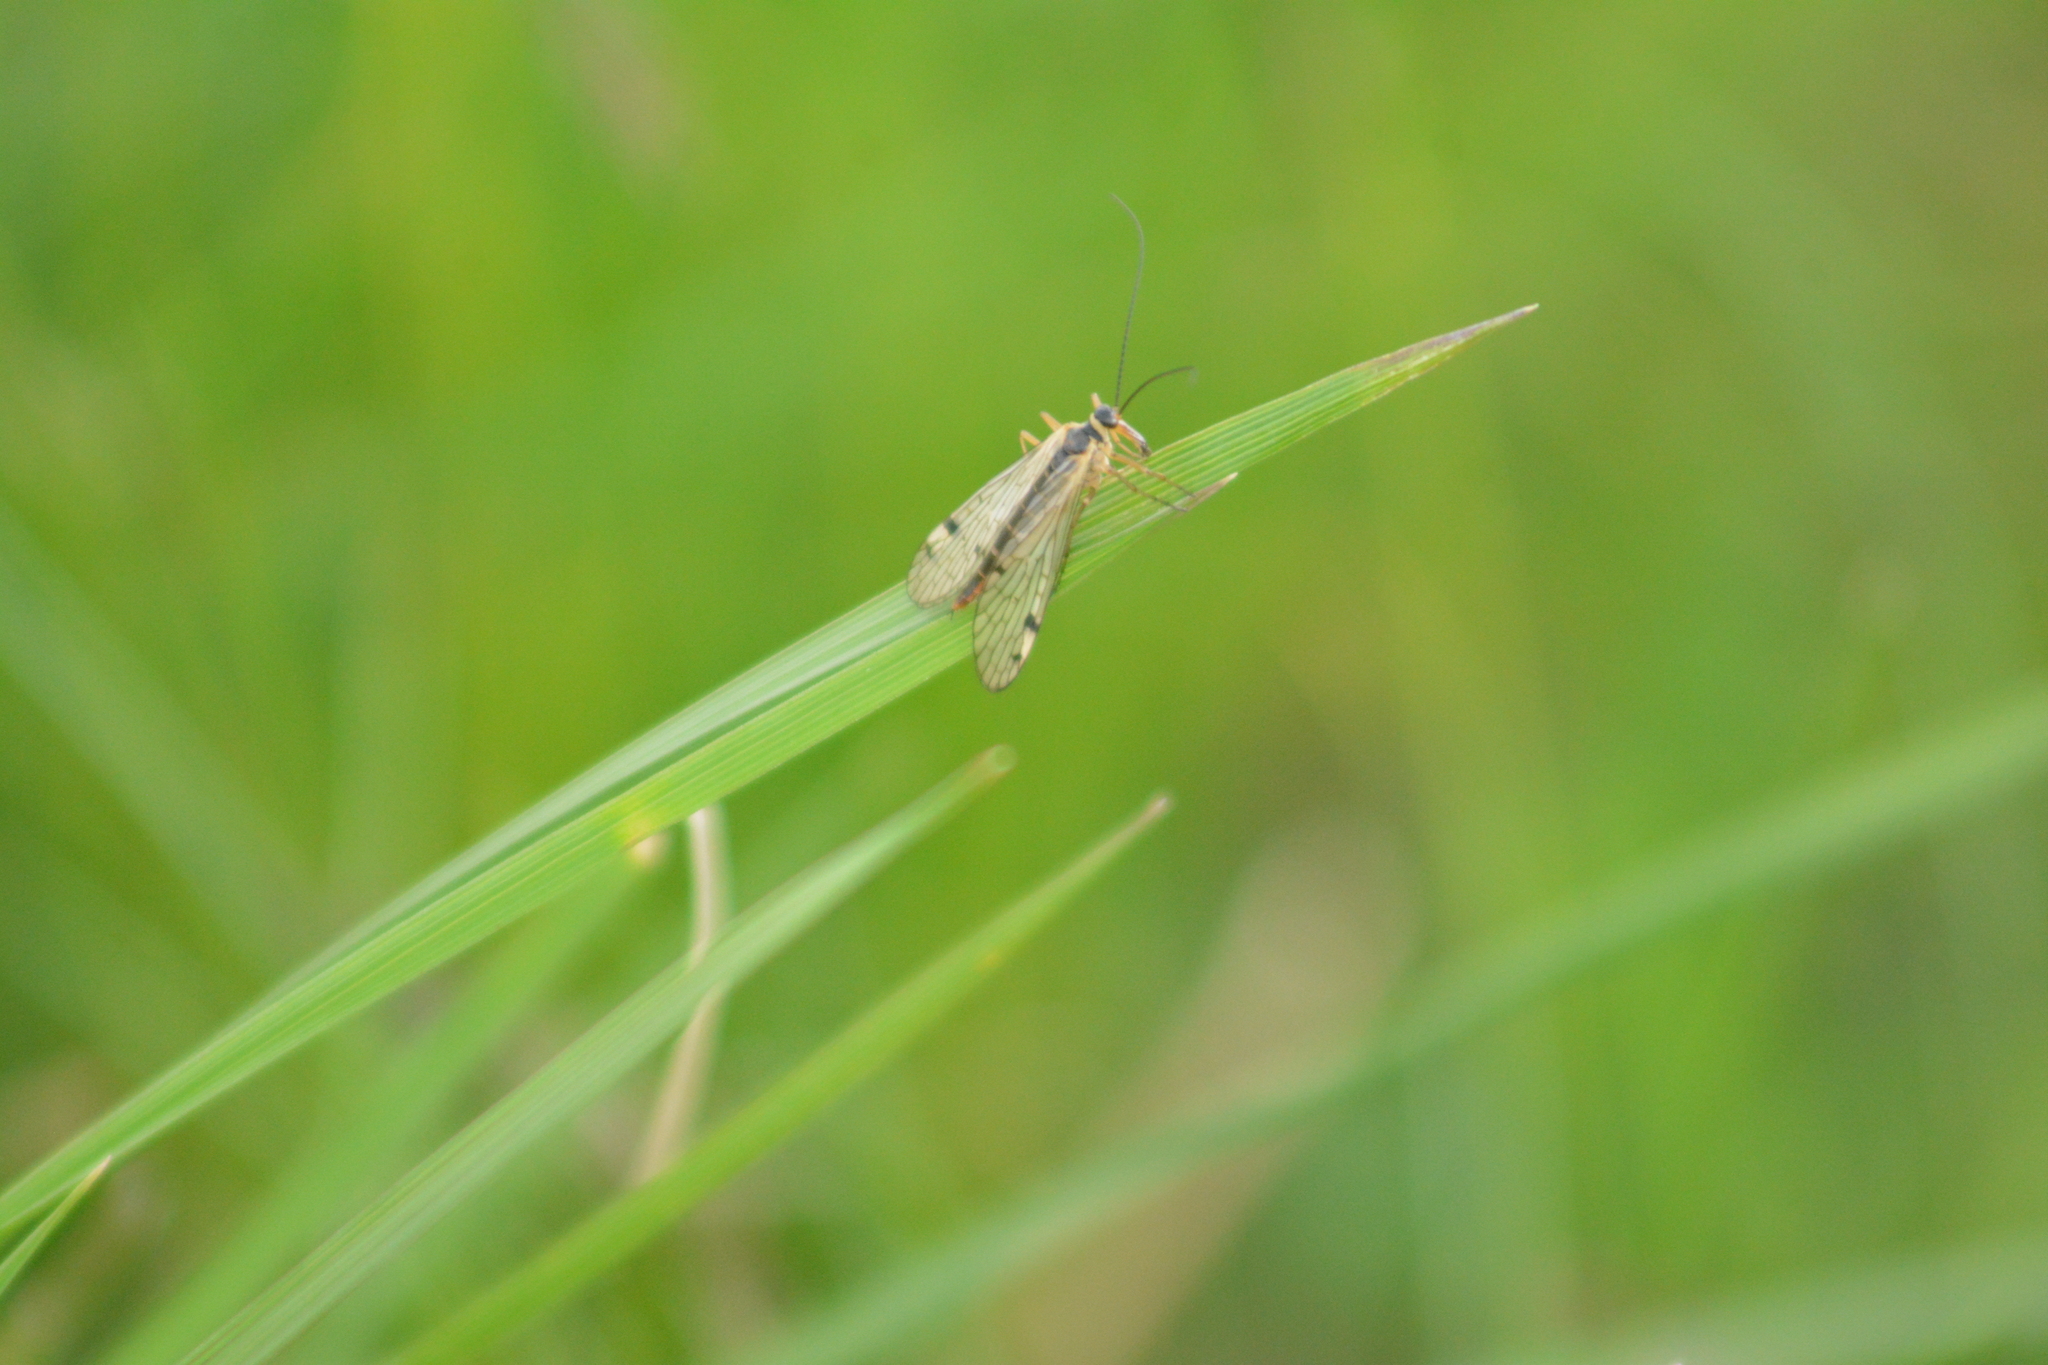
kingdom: Animalia
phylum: Arthropoda
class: Insecta
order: Mecoptera
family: Panorpidae
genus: Panorpa
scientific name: Panorpa alpina
